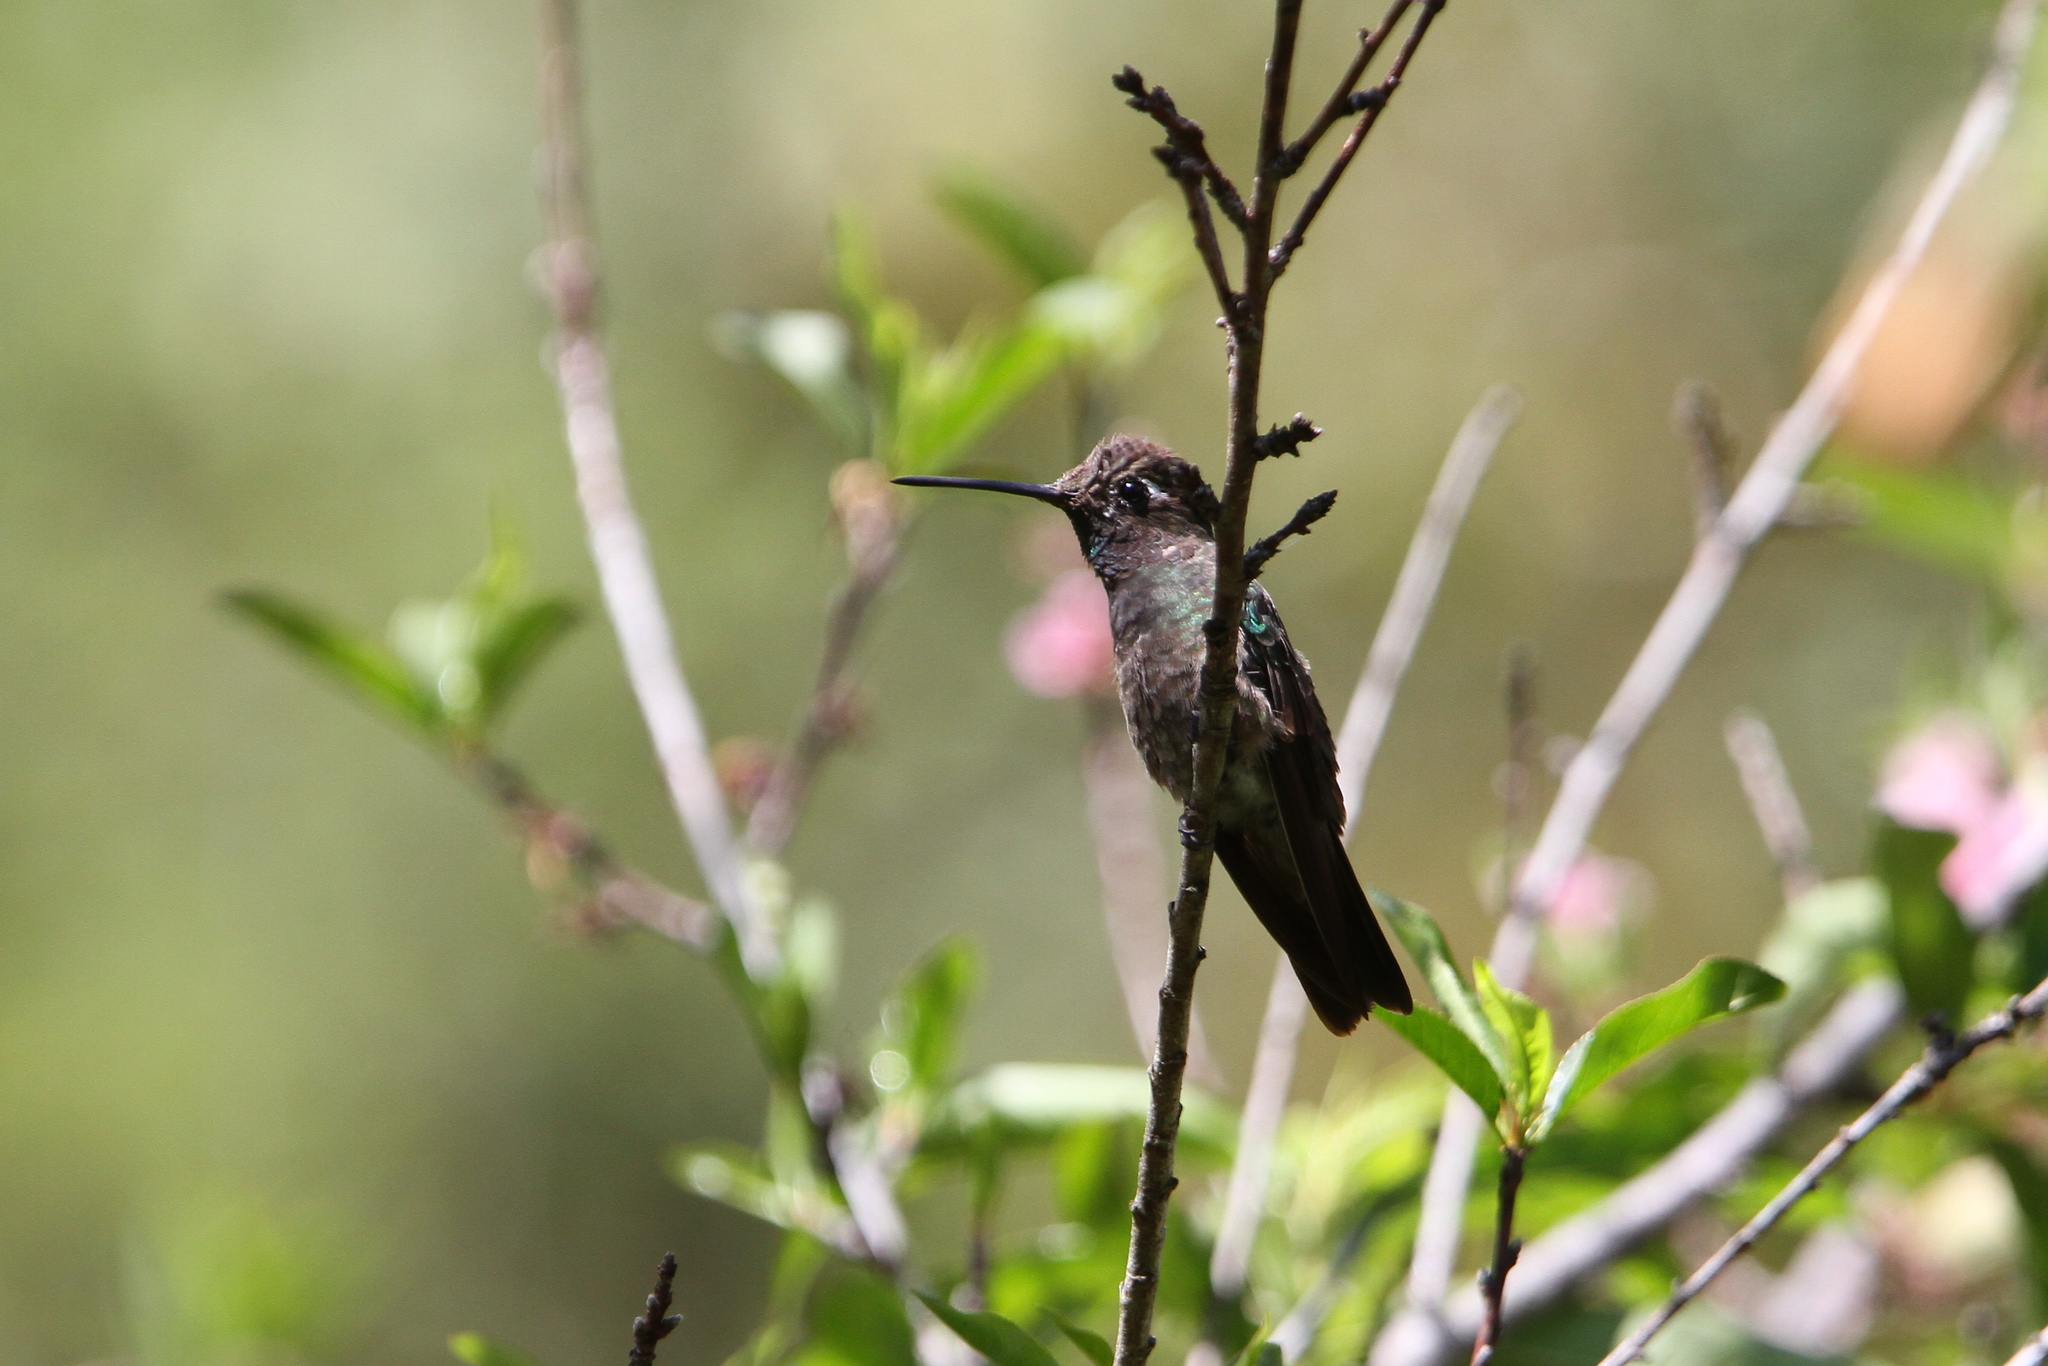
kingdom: Animalia
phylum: Chordata
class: Aves
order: Apodiformes
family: Trochilidae
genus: Eugenes
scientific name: Eugenes fulgens
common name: Magnificent hummingbird
